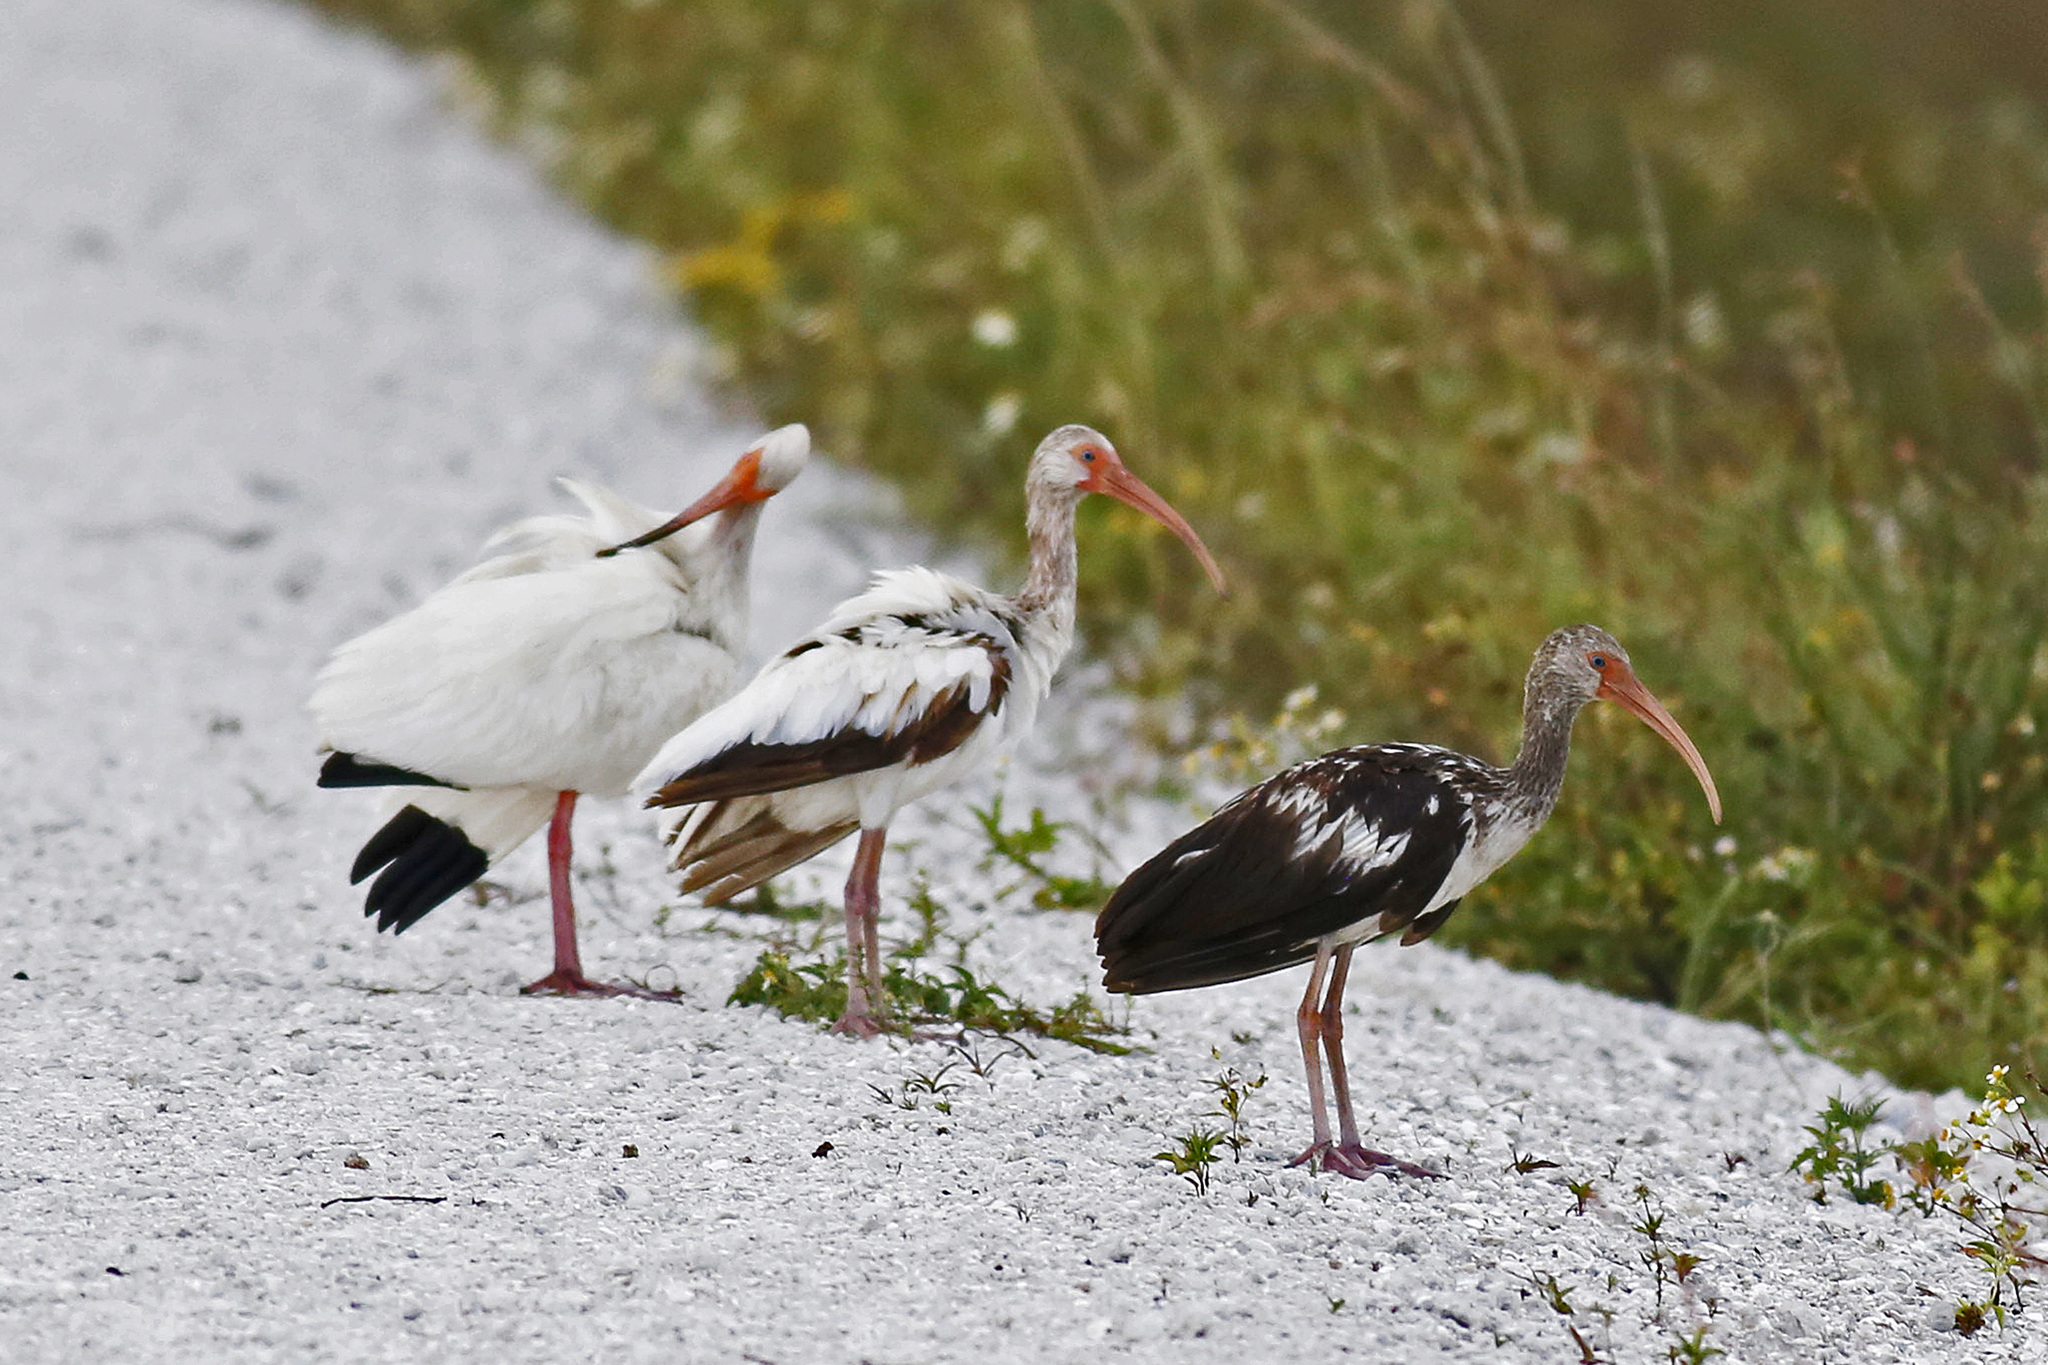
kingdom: Animalia
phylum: Chordata
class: Aves
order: Pelecaniformes
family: Threskiornithidae
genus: Eudocimus
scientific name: Eudocimus albus
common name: White ibis
